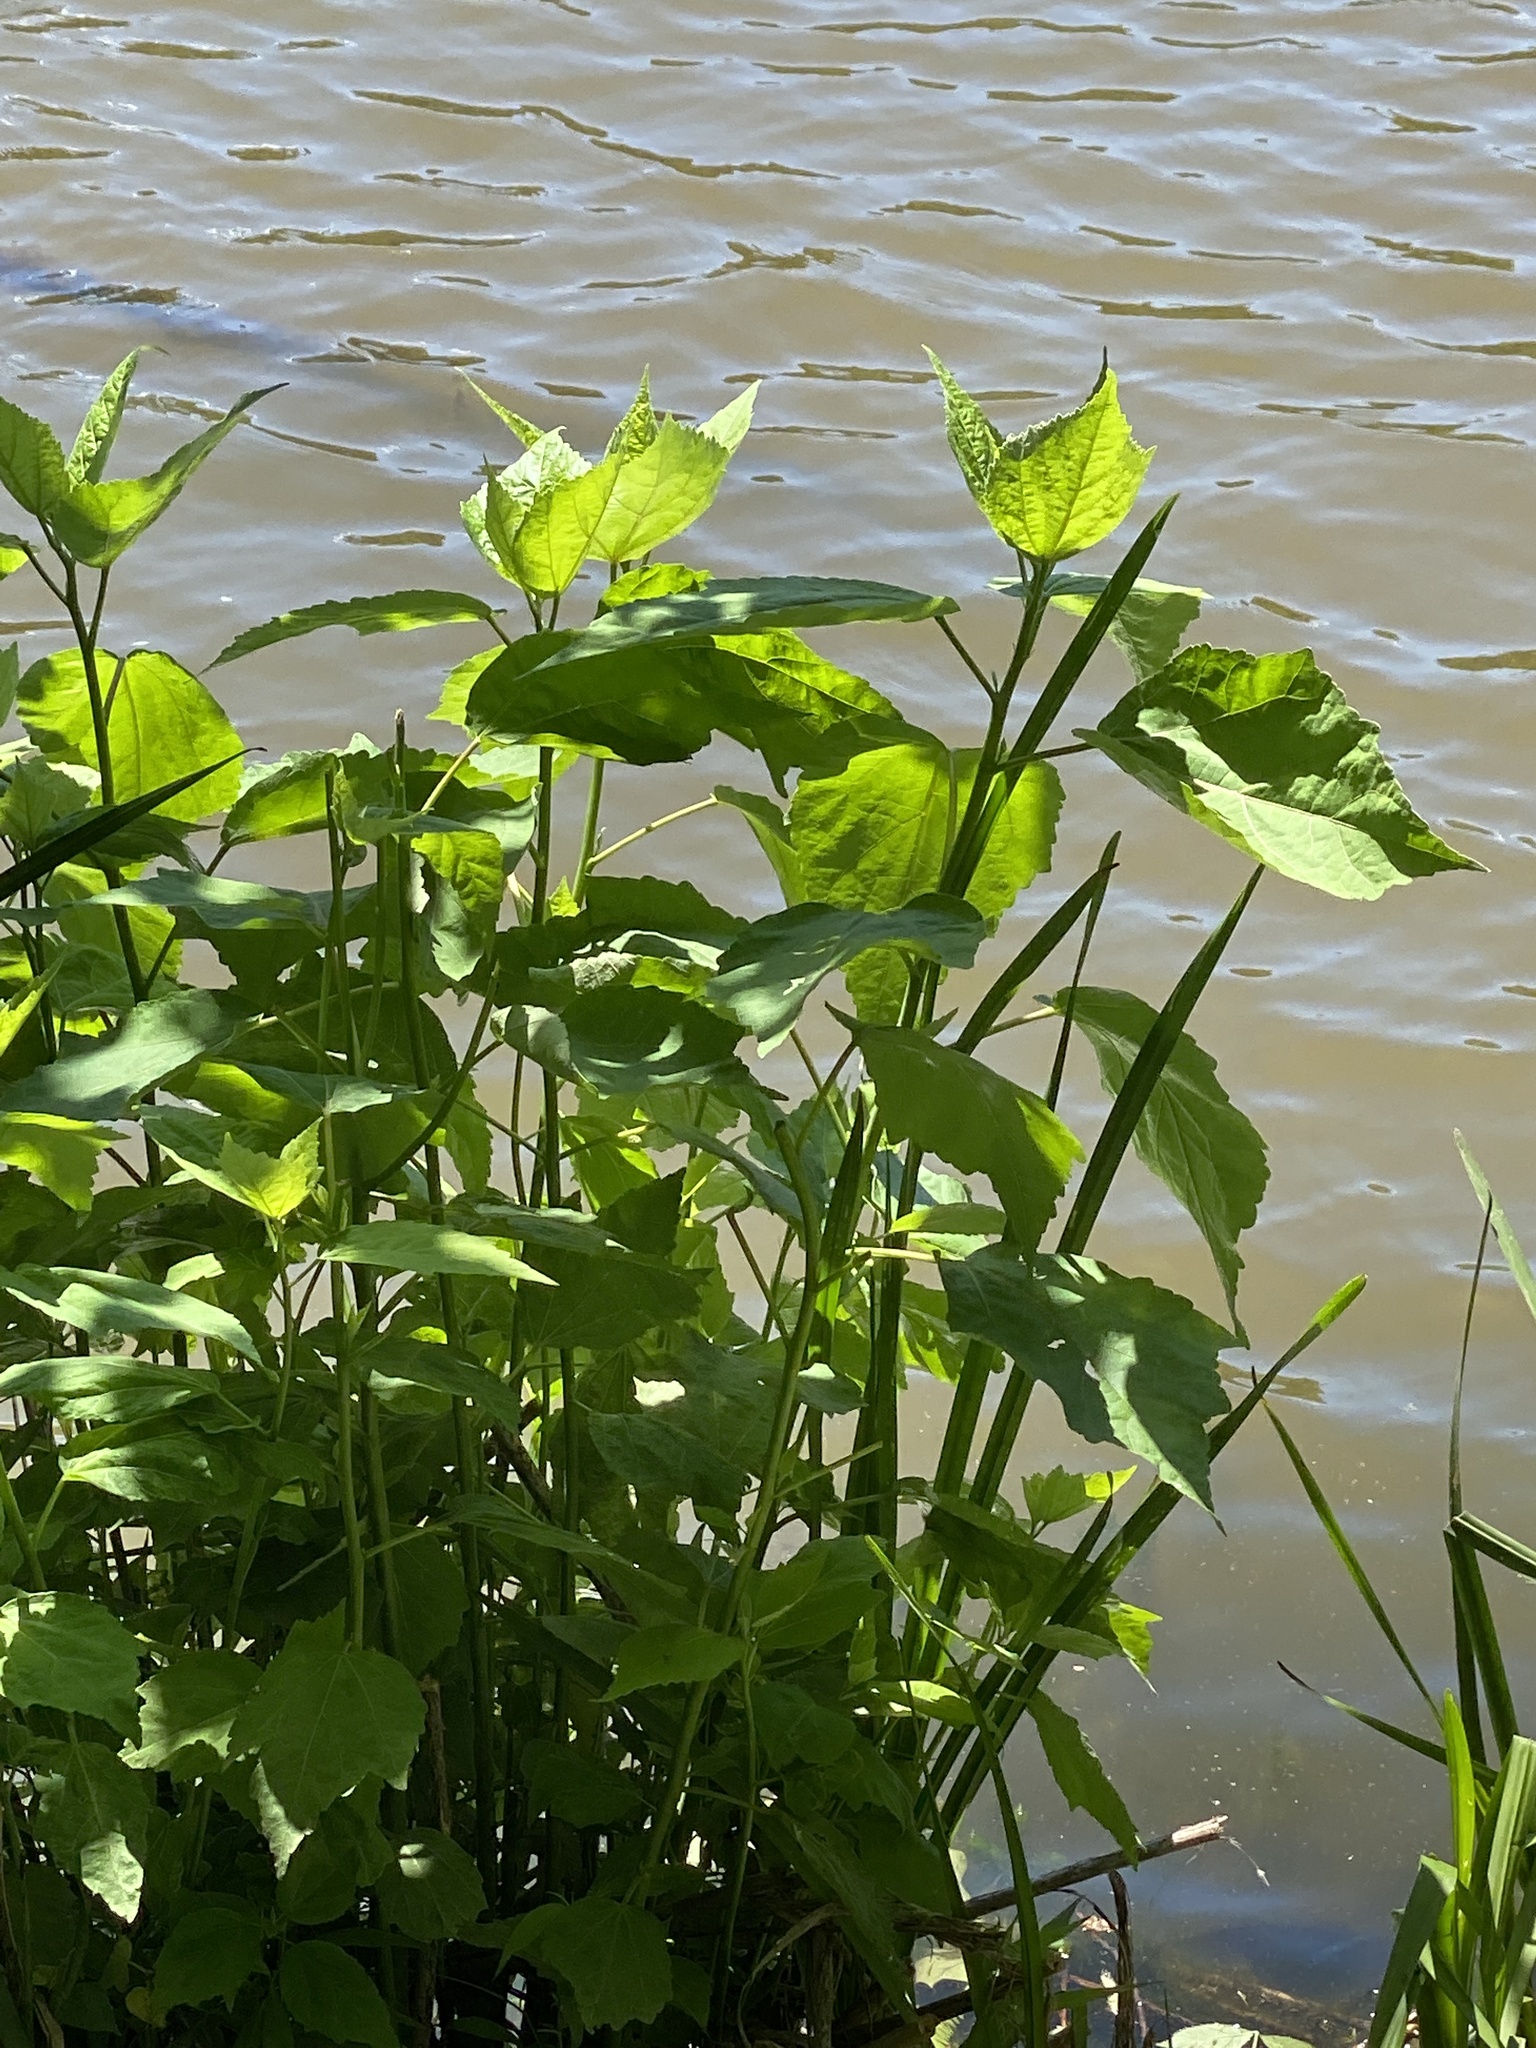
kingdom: Plantae
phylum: Tracheophyta
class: Magnoliopsida
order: Malvales
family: Malvaceae
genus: Hibiscus
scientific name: Hibiscus moscheutos
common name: Common rose-mallow
